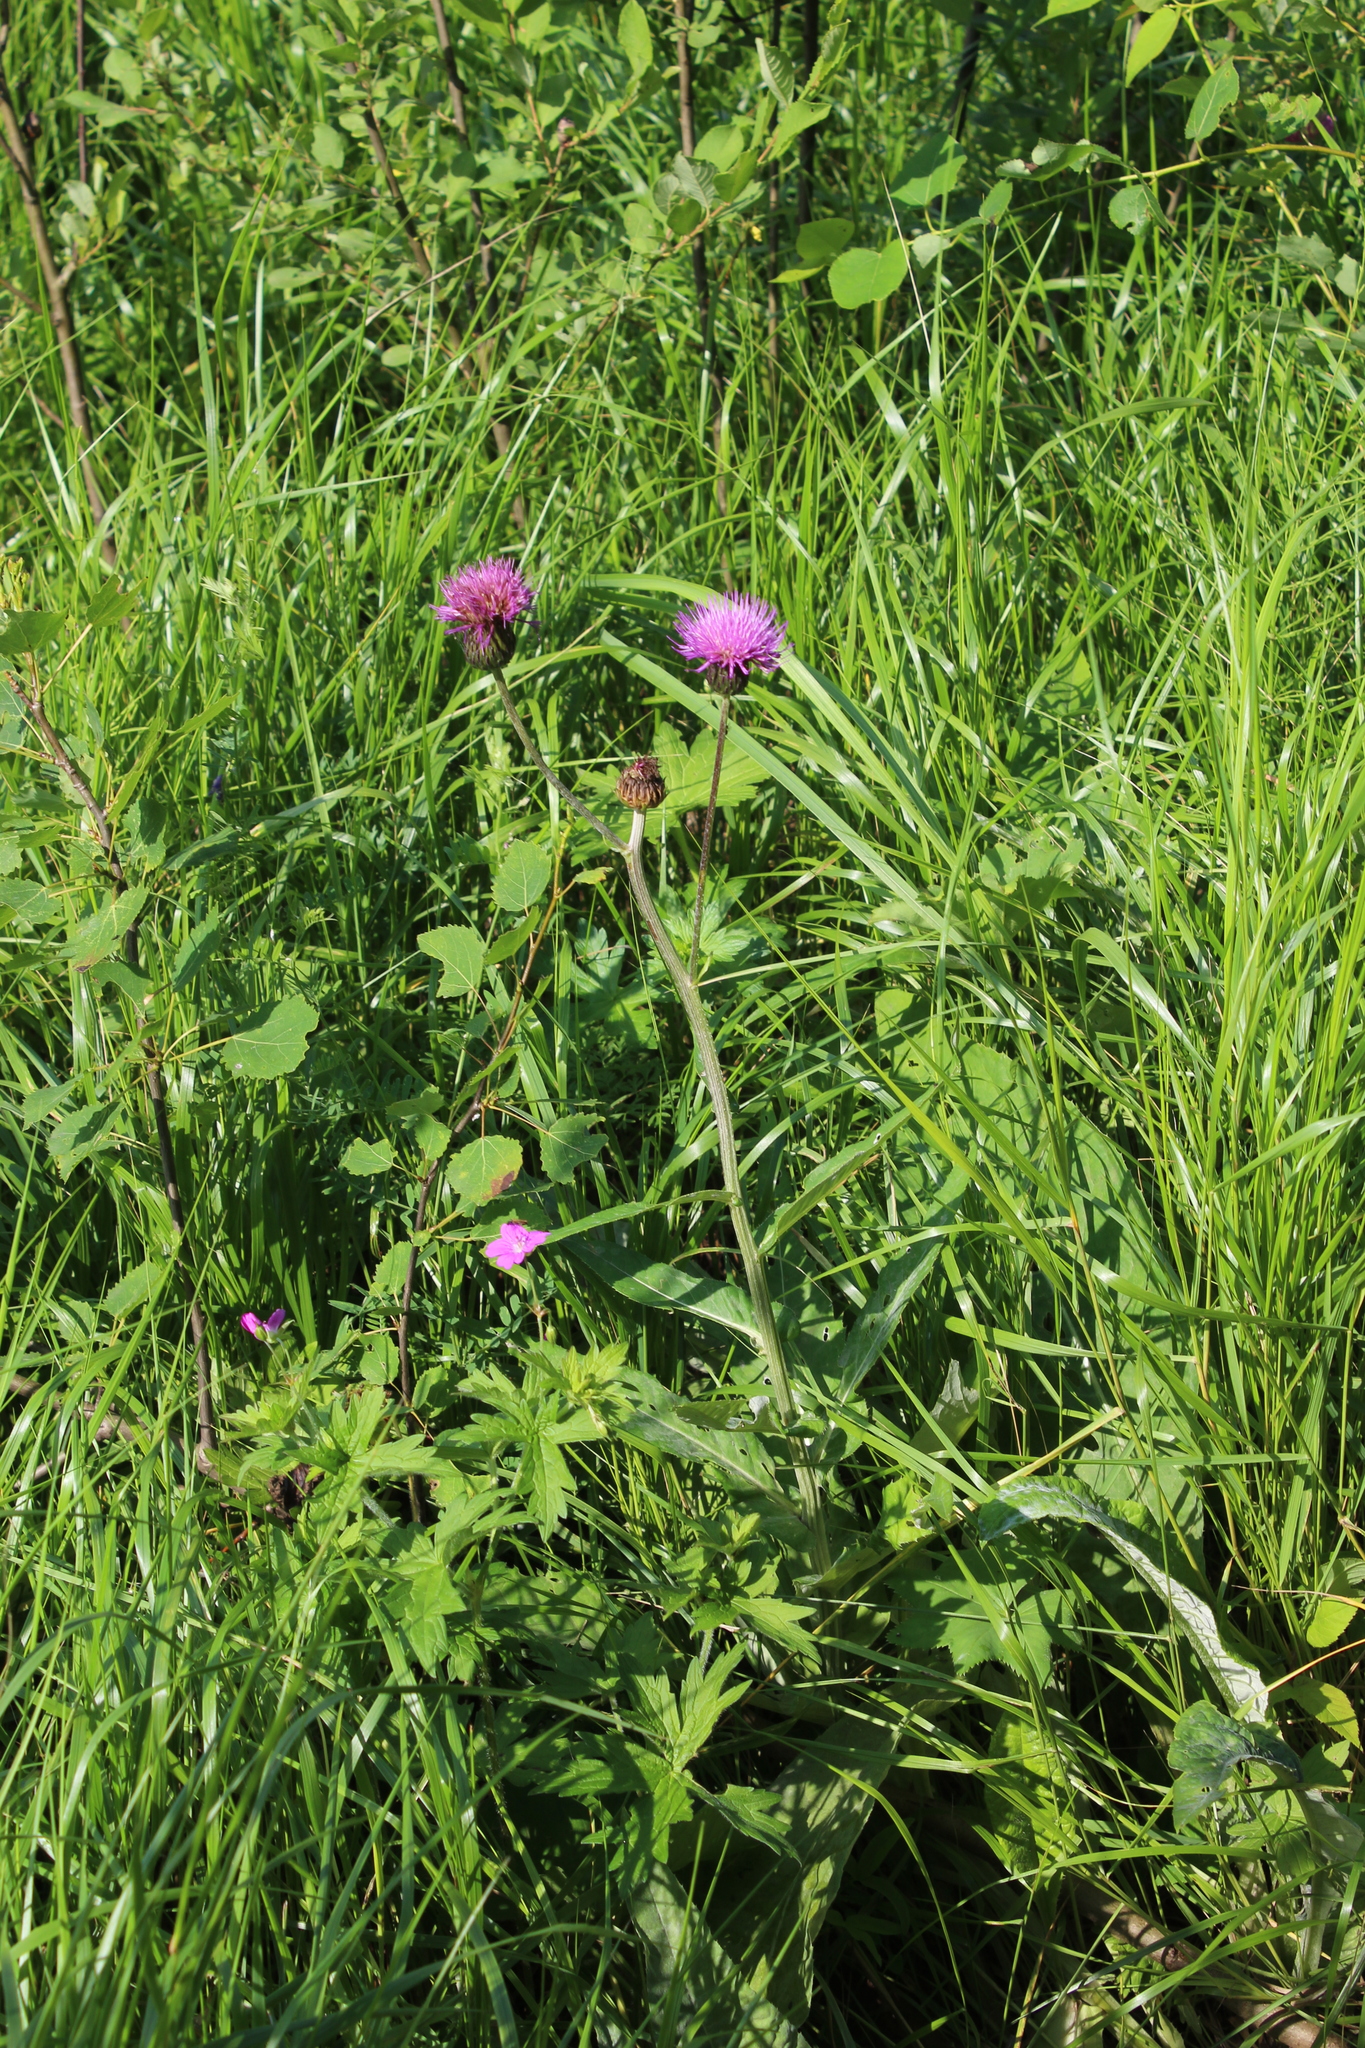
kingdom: Plantae
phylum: Tracheophyta
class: Magnoliopsida
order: Asterales
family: Asteraceae
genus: Cirsium
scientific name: Cirsium heterophyllum
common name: Melancholy thistle
